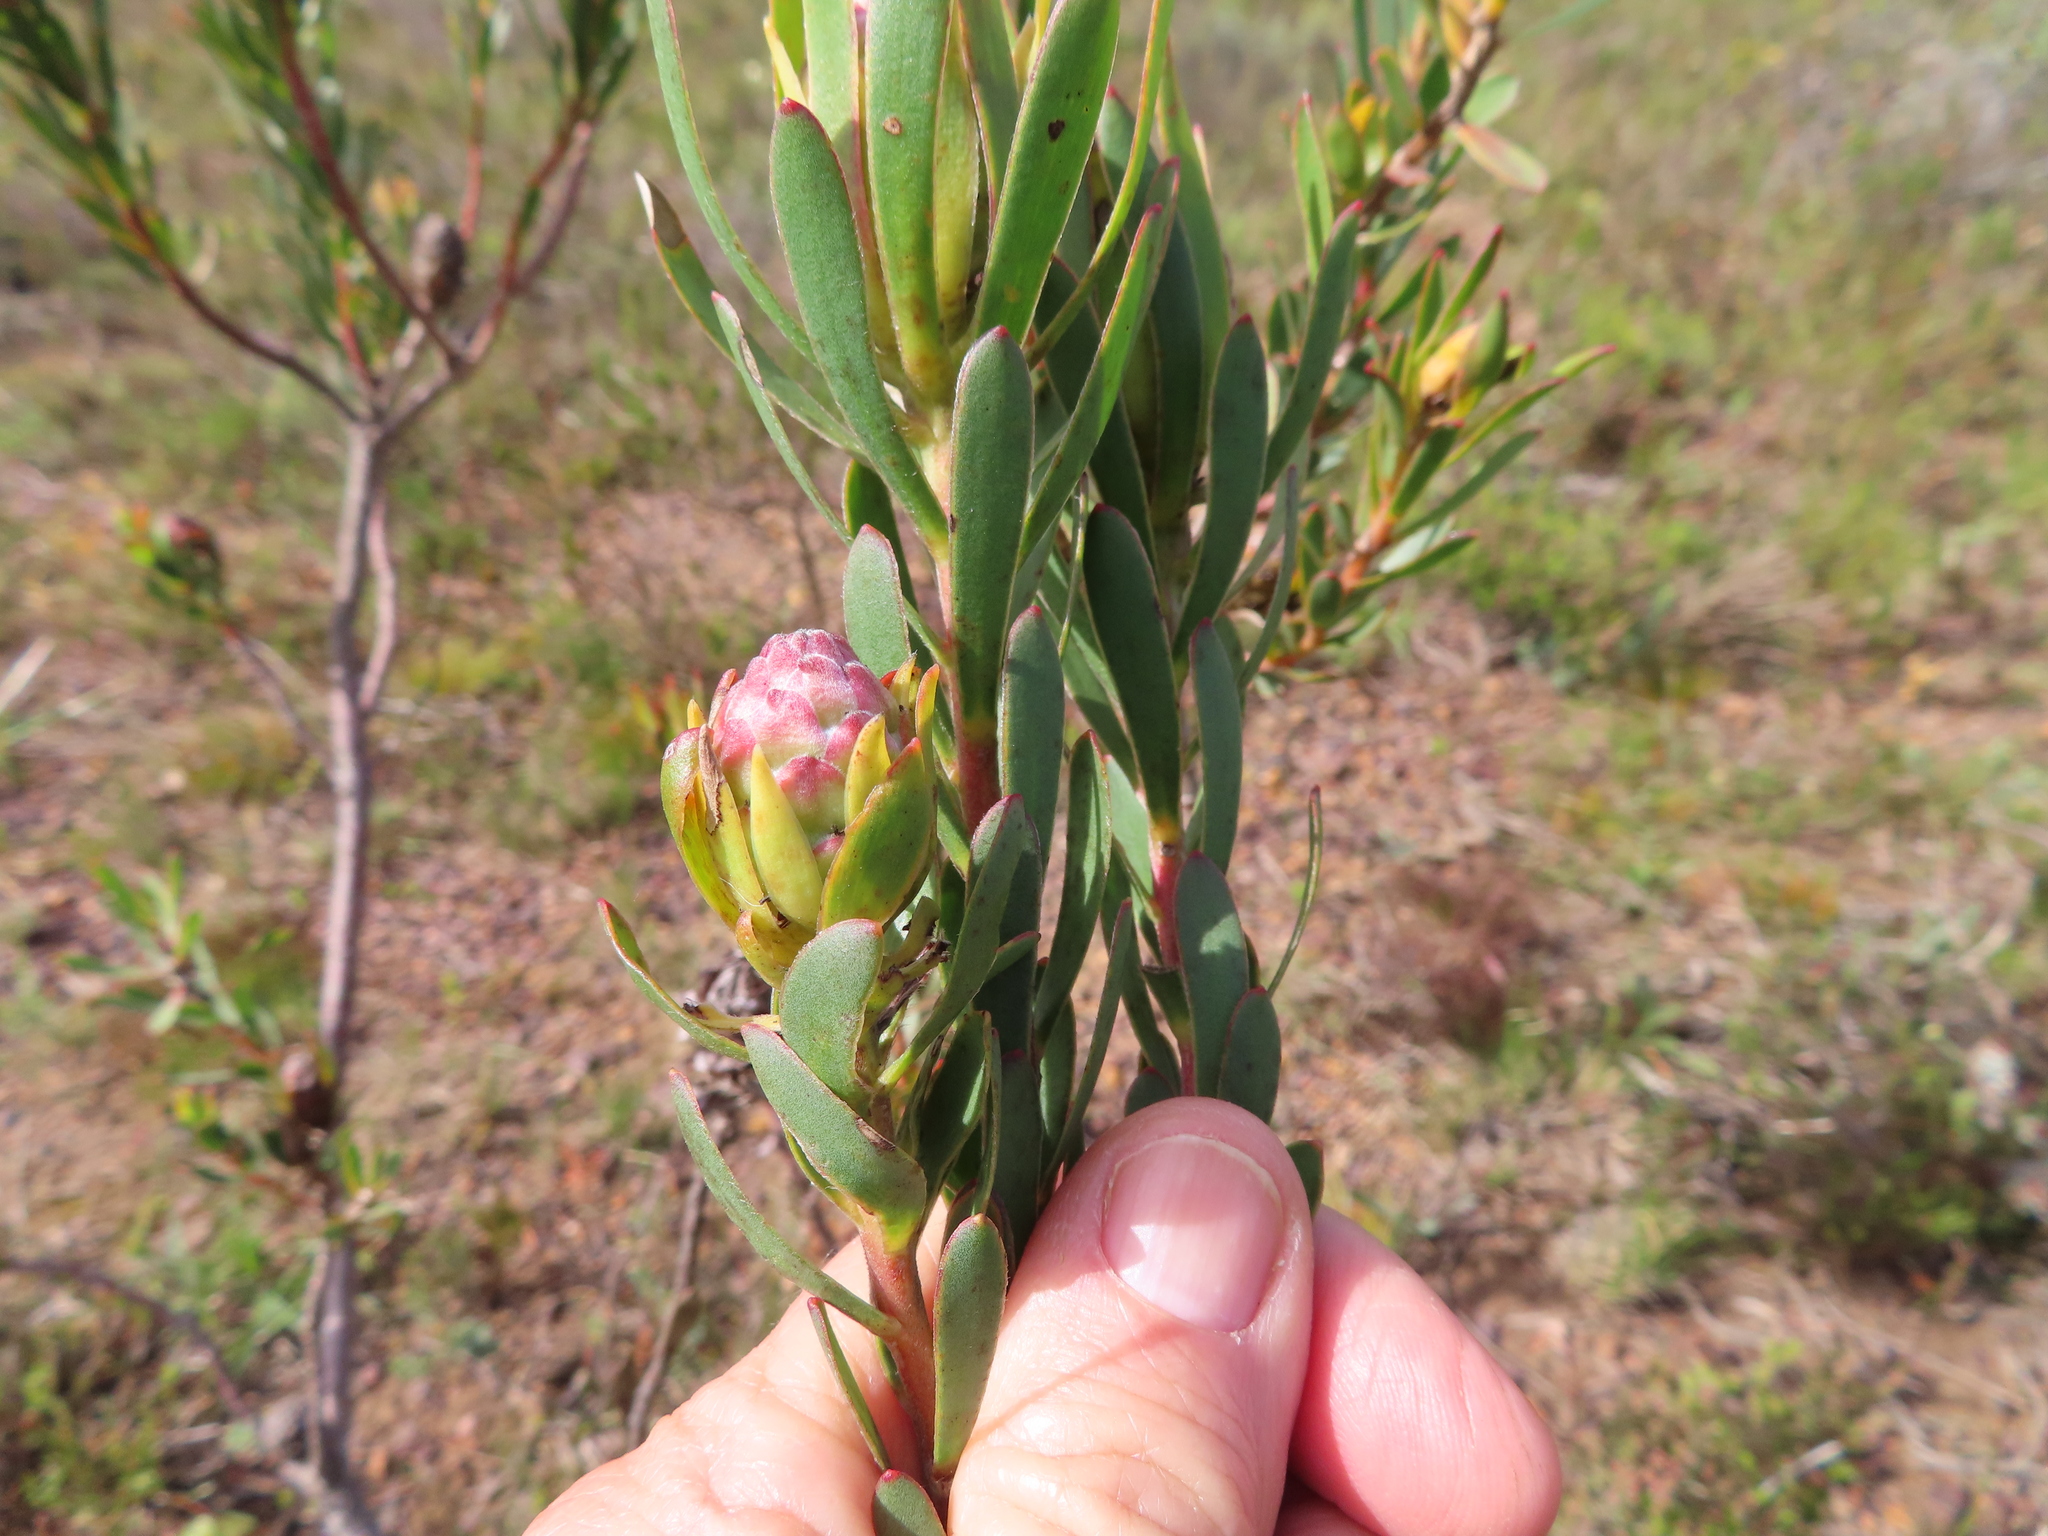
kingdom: Plantae
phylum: Tracheophyta
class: Magnoliopsida
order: Proteales
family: Proteaceae
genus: Leucadendron
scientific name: Leucadendron stelligerum
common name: Agulhas conebush
